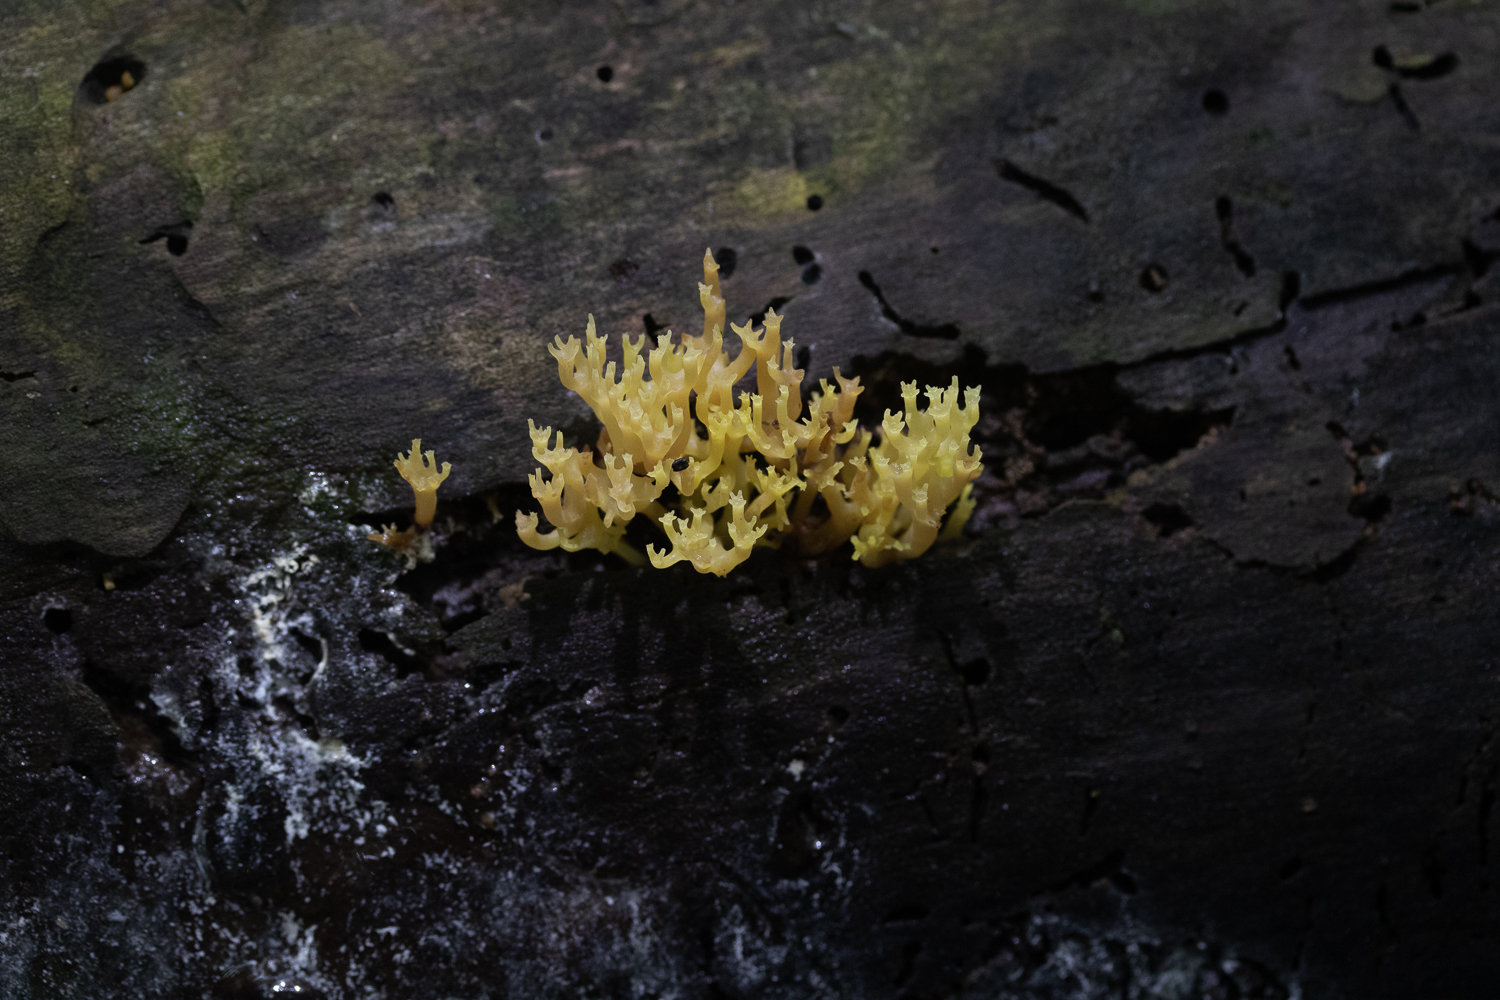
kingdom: Fungi
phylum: Basidiomycota
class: Agaricomycetes
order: Russulales
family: Auriscalpiaceae
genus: Artomyces
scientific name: Artomyces pyxidatus
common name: Crown-tipped coral fungus
